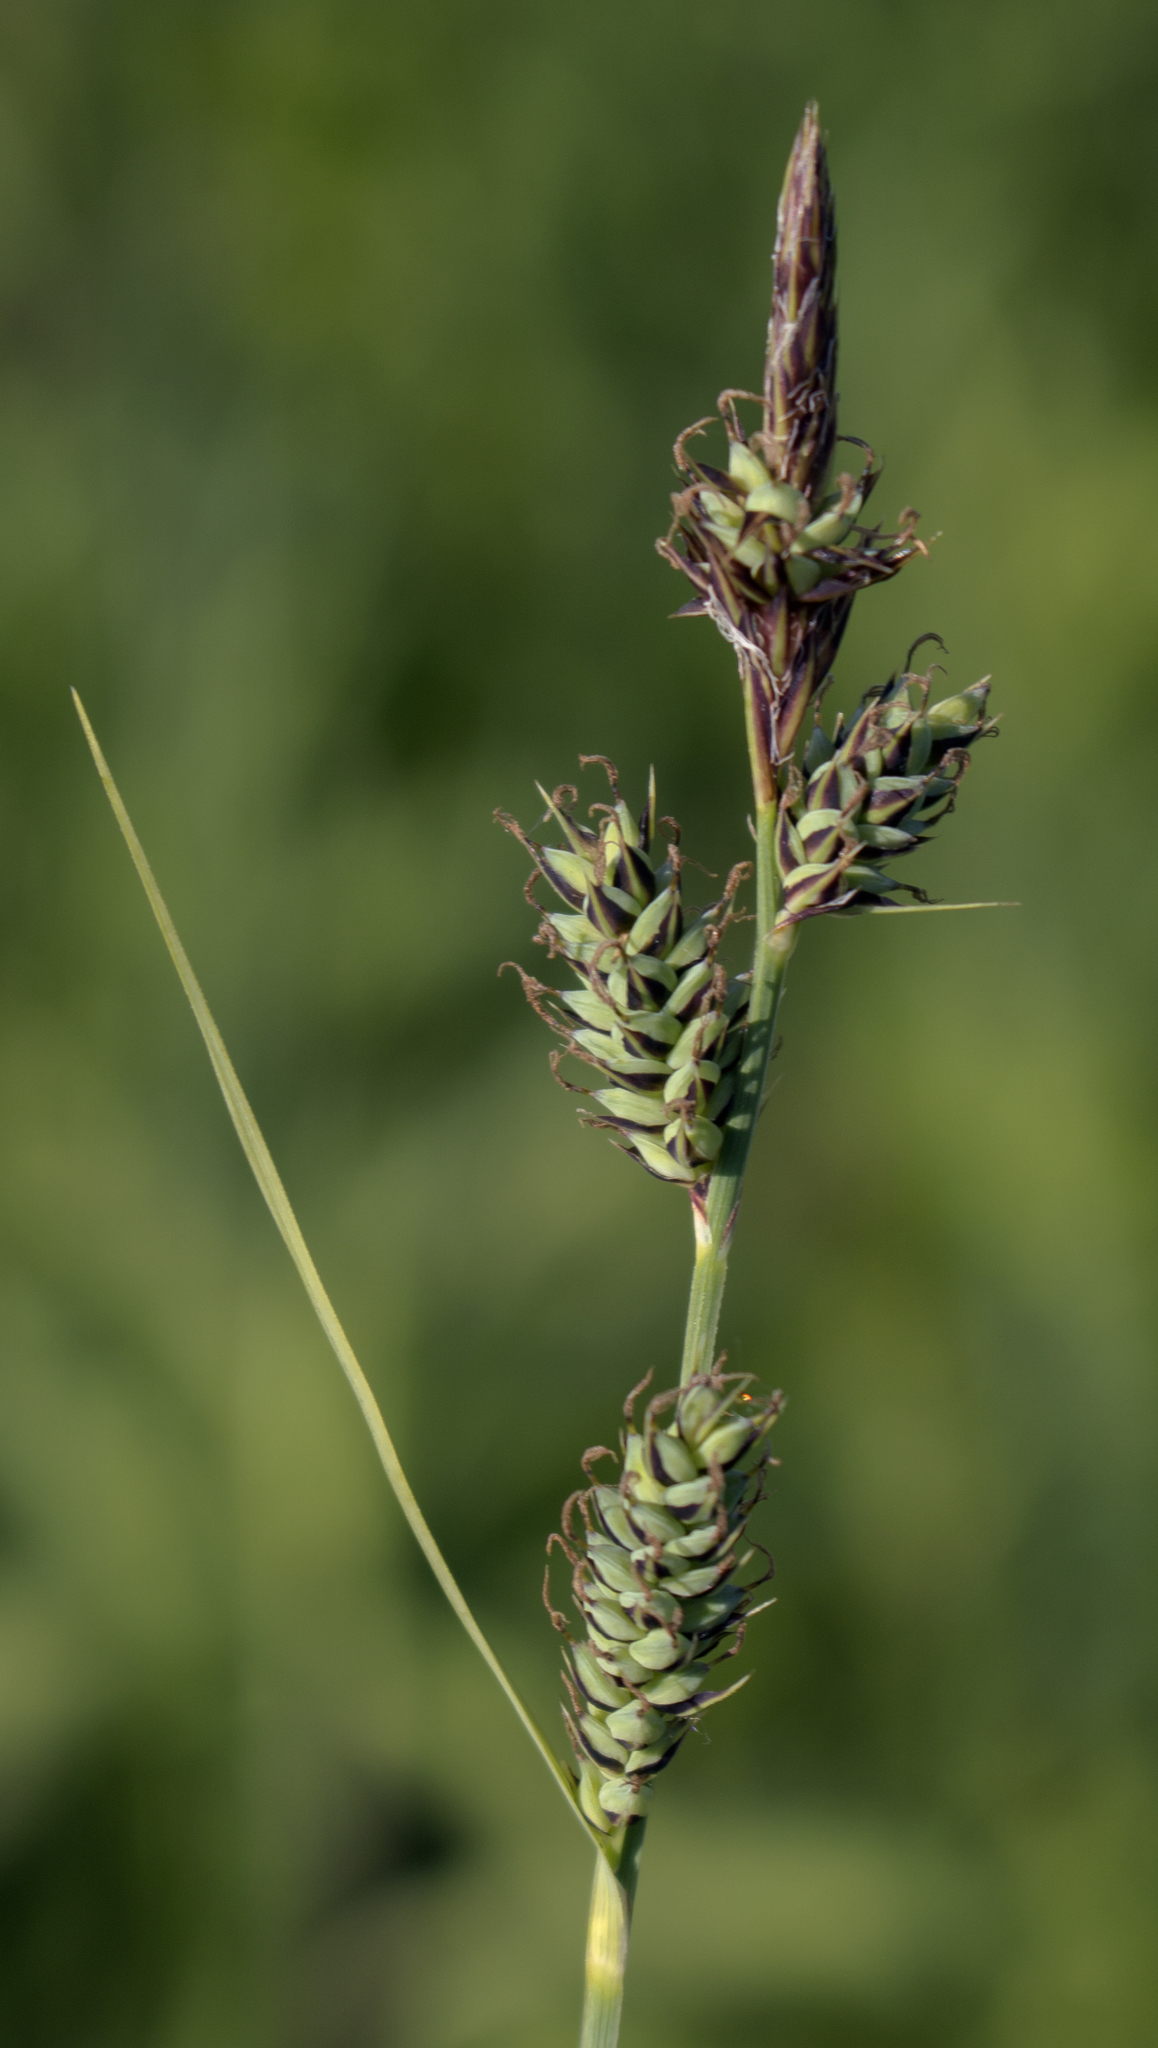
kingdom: Plantae
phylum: Tracheophyta
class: Liliopsida
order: Poales
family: Cyperaceae
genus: Carex
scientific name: Carex buxbaumii
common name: Club sedge
